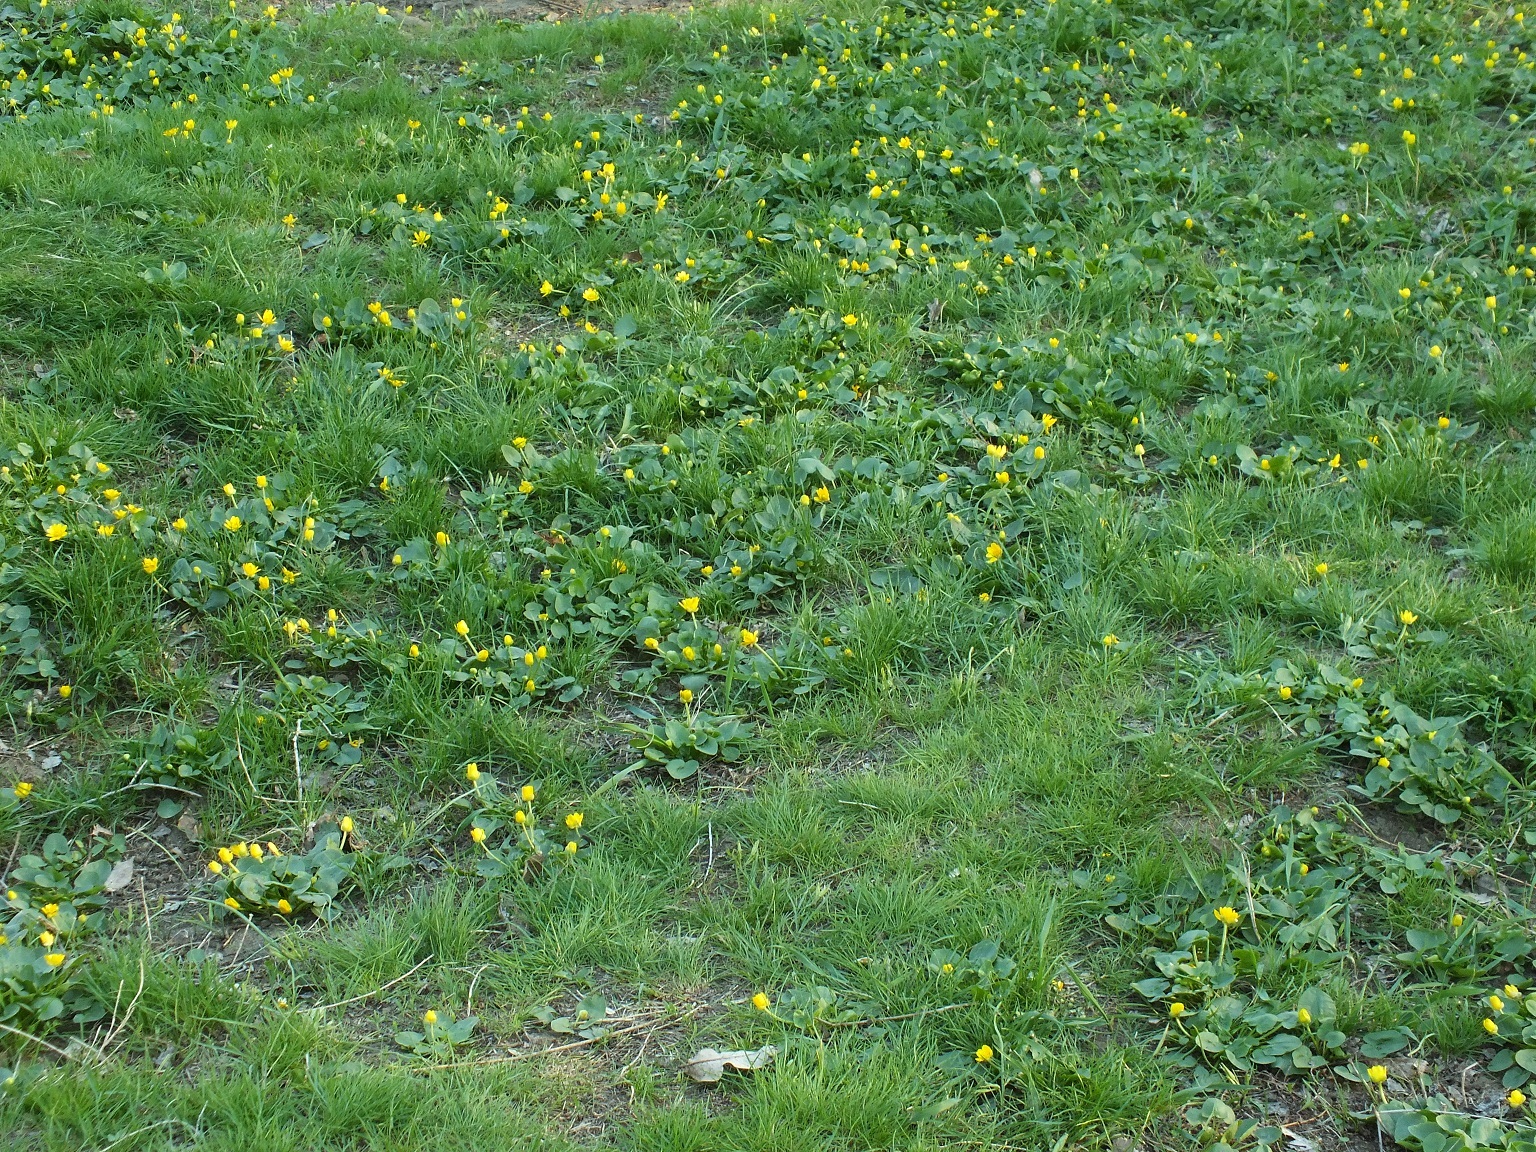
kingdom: Plantae
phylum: Tracheophyta
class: Magnoliopsida
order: Ranunculales
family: Ranunculaceae
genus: Ficaria
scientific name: Ficaria verna
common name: Lesser celandine
